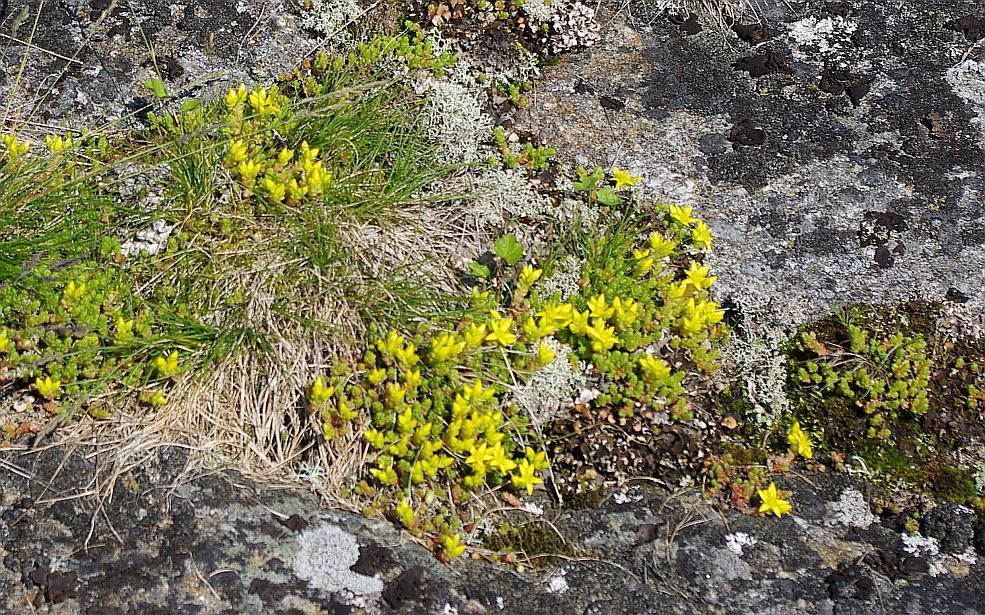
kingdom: Plantae
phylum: Tracheophyta
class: Magnoliopsida
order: Saxifragales
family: Crassulaceae
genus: Sedum
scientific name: Sedum acre
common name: Biting stonecrop
